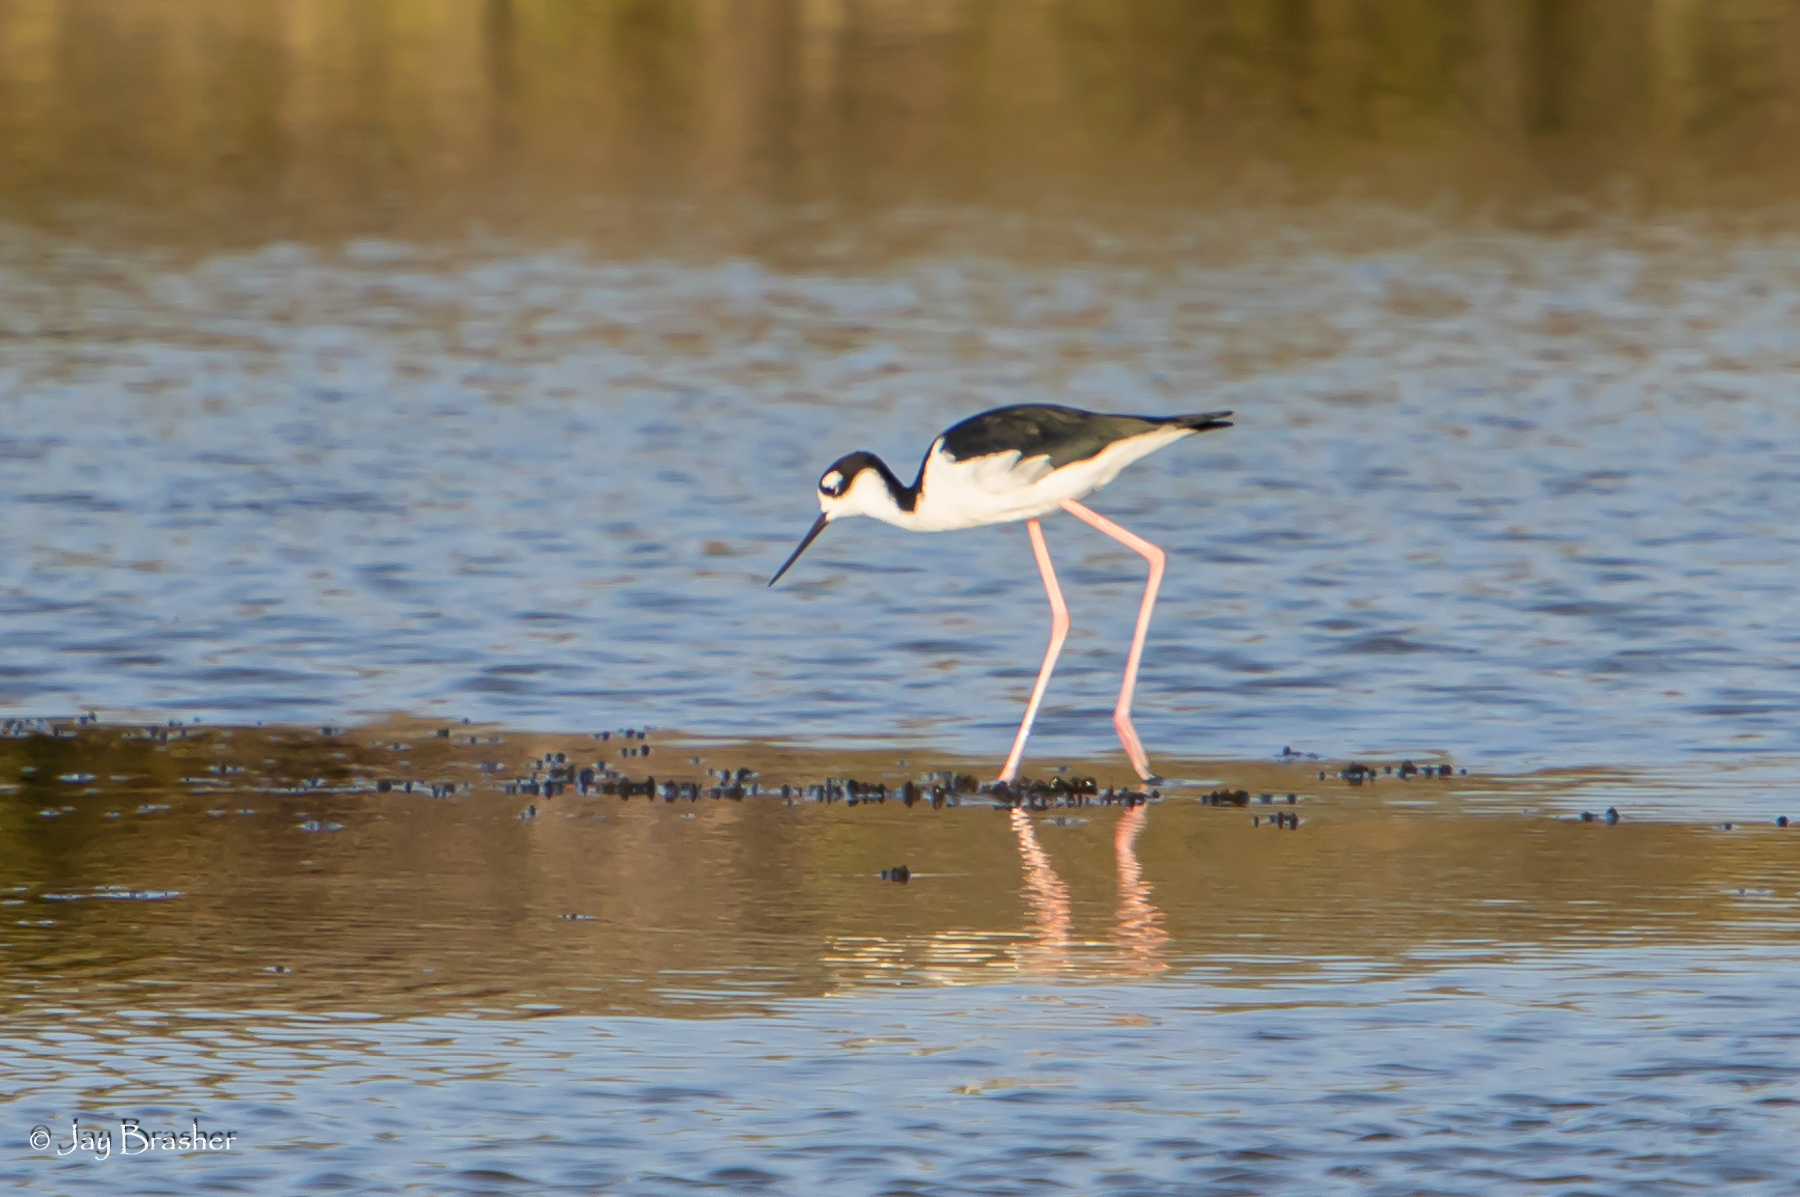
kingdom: Animalia
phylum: Chordata
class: Aves
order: Charadriiformes
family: Recurvirostridae
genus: Himantopus
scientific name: Himantopus mexicanus
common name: Black-necked stilt
